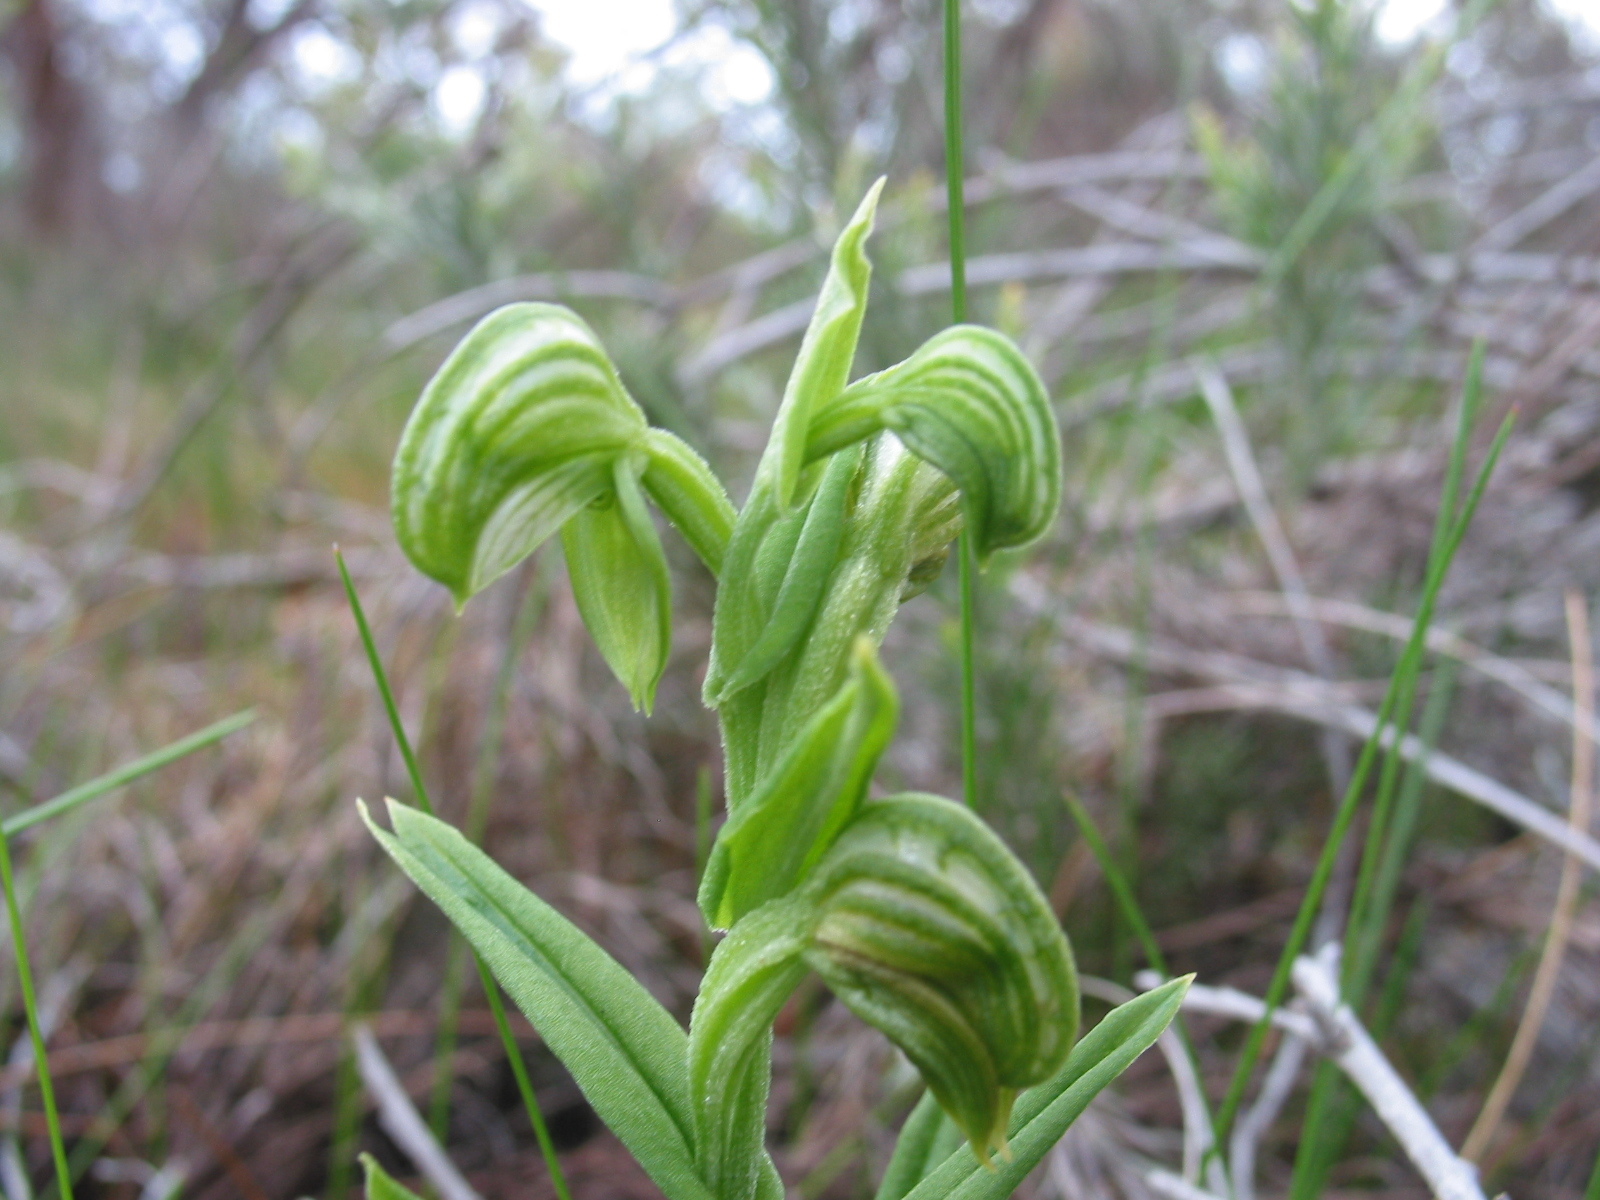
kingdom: Plantae
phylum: Tracheophyta
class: Liliopsida
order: Asparagales
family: Orchidaceae
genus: Pterostylis
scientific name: Pterostylis orbiculata
